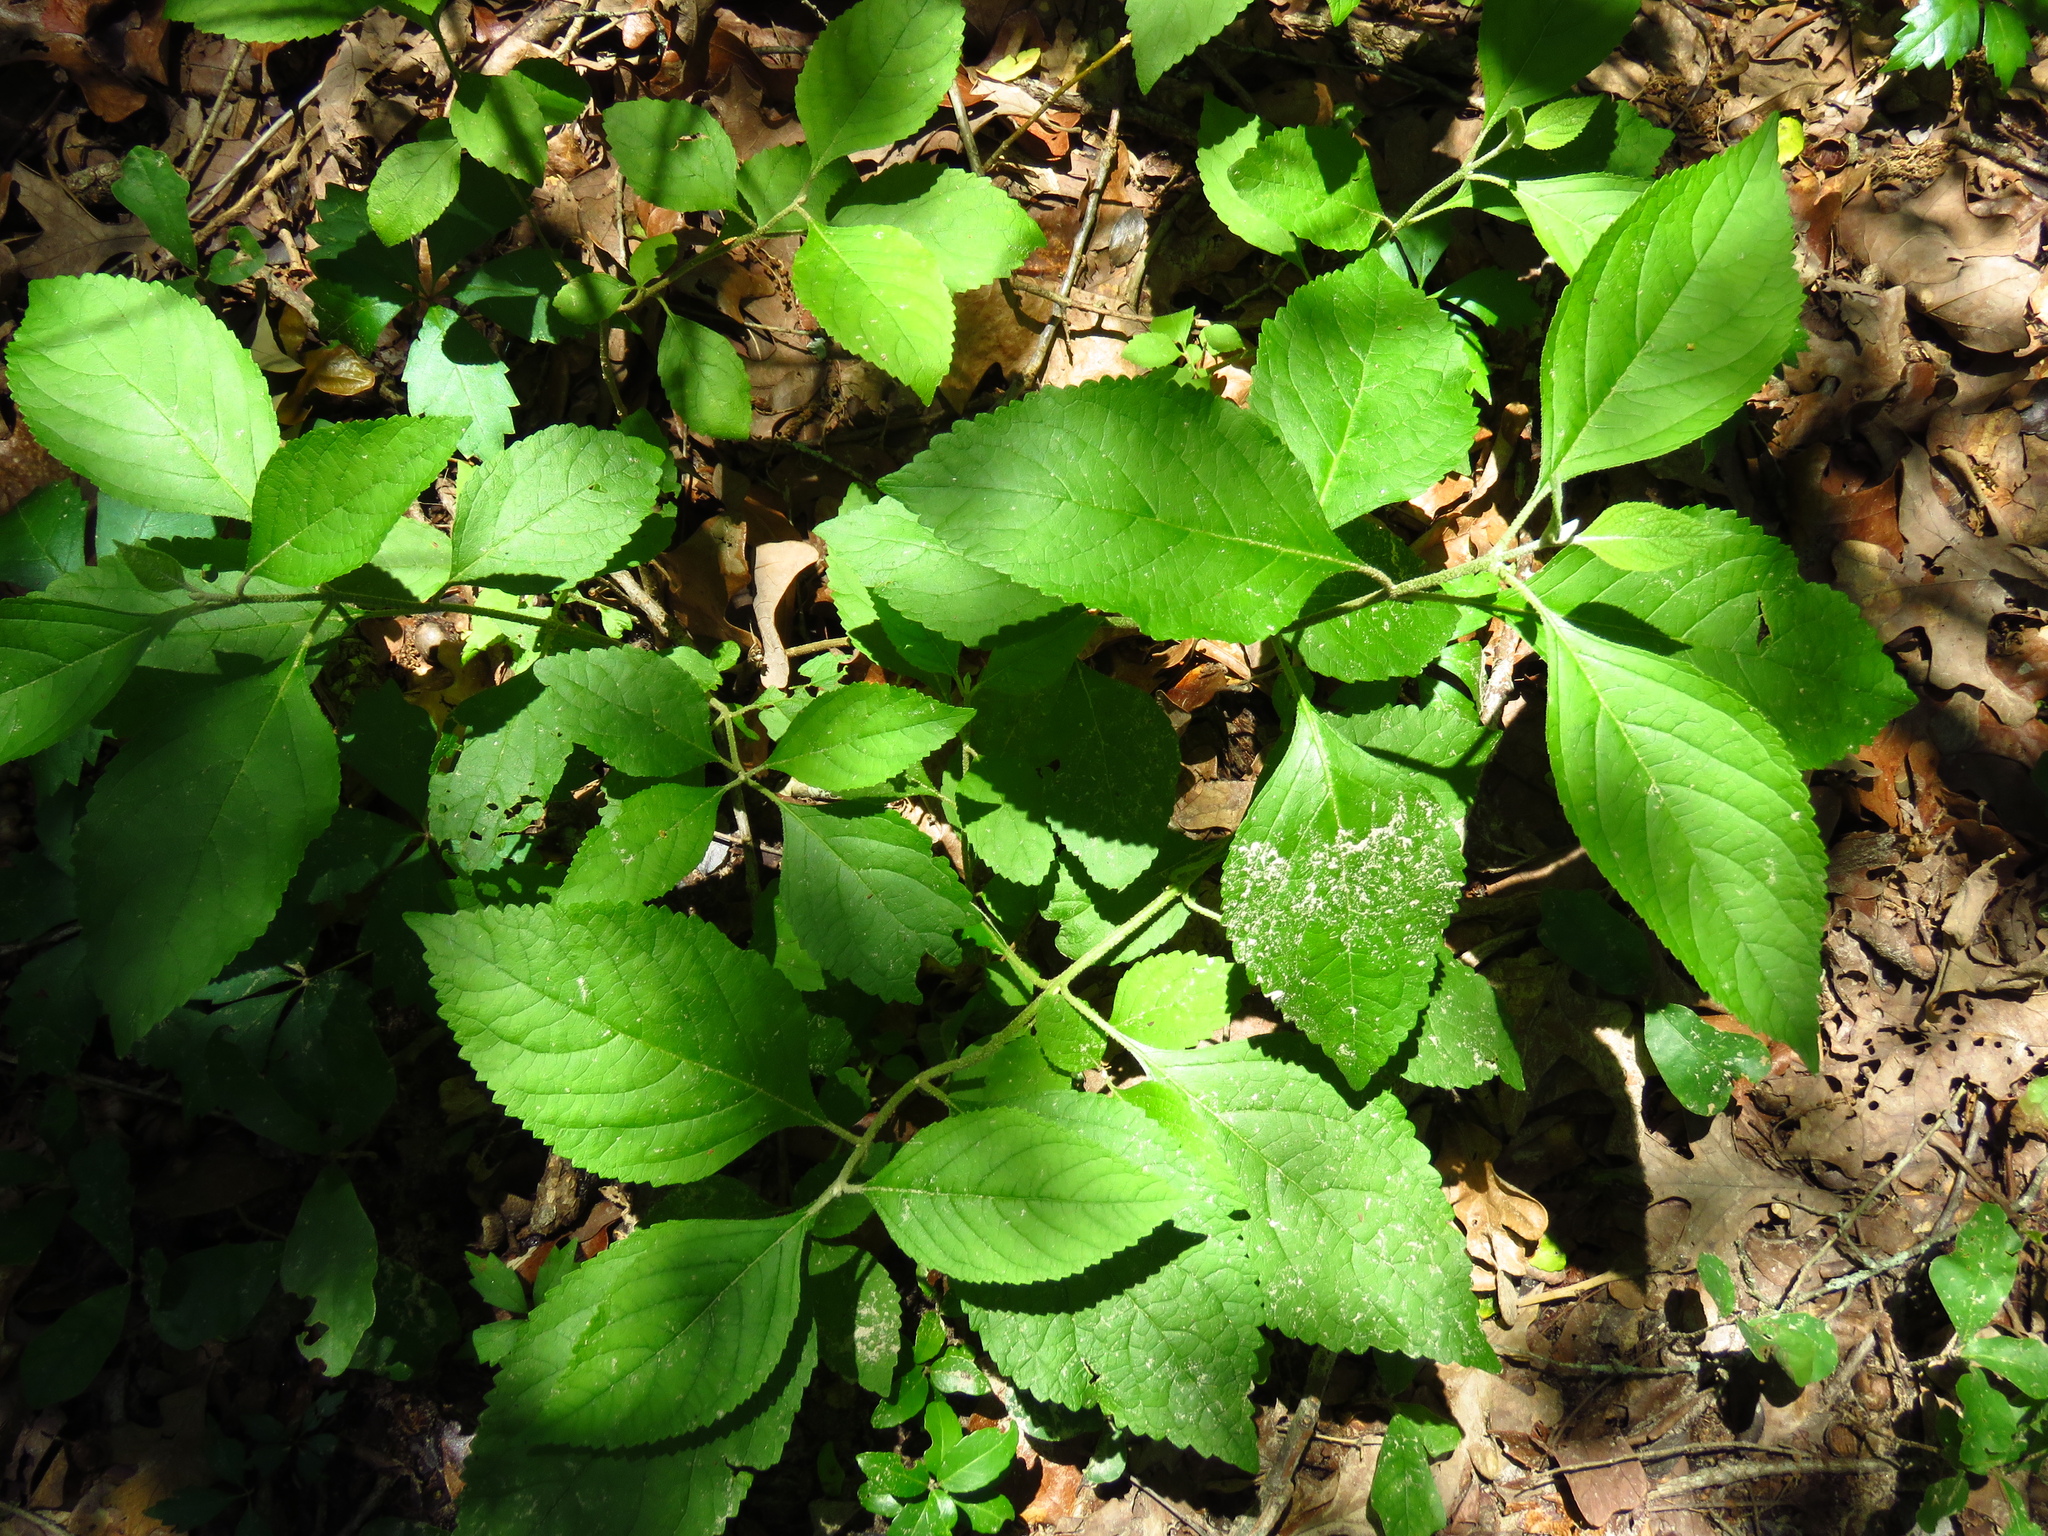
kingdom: Plantae
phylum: Tracheophyta
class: Magnoliopsida
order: Lamiales
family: Lamiaceae
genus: Callicarpa
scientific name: Callicarpa americana
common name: American beautyberry
